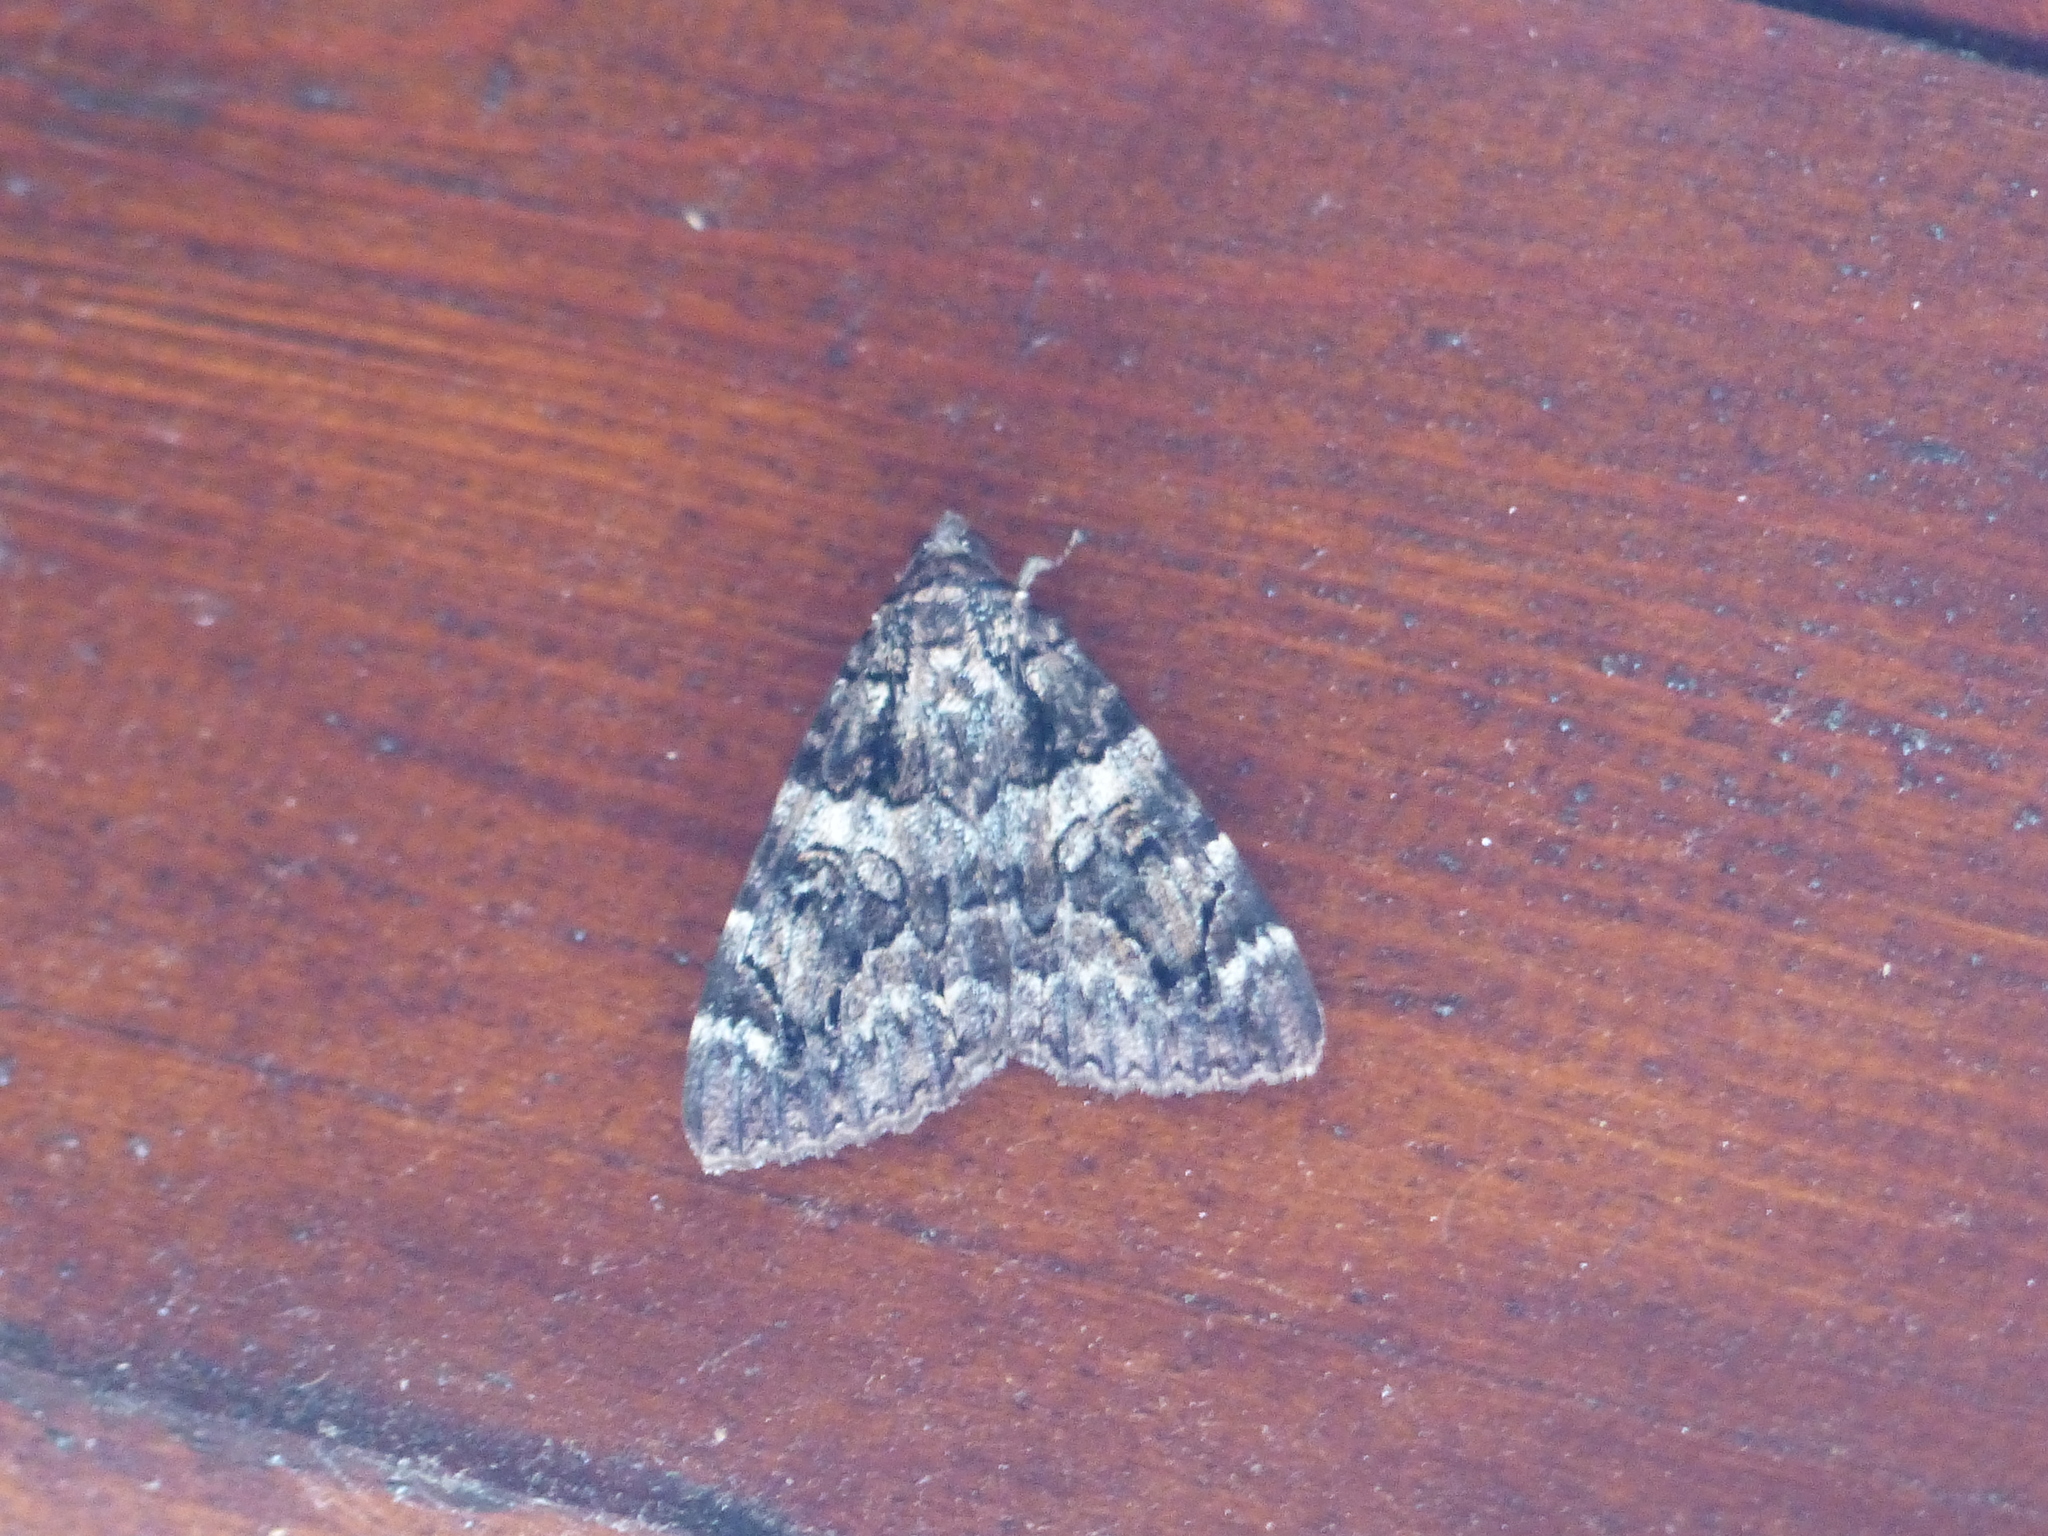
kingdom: Animalia
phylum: Arthropoda
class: Insecta
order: Lepidoptera
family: Erebidae
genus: Catocala
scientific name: Catocala coniuncta
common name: Minsmere crimson underwing
